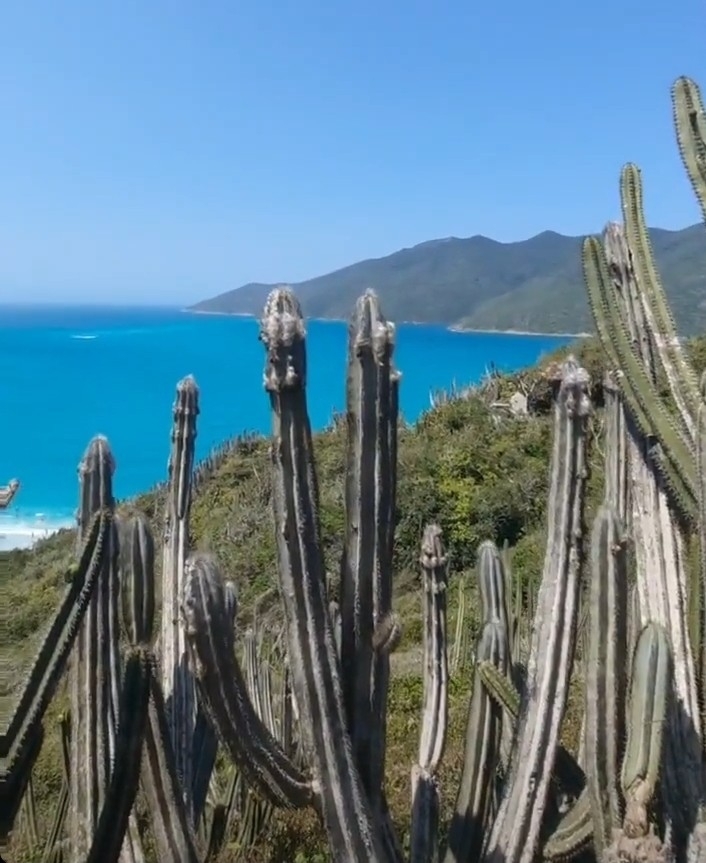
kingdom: Plantae
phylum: Tracheophyta
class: Magnoliopsida
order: Caryophyllales
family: Cactaceae
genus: Pilosocereus
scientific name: Pilosocereus ulei
